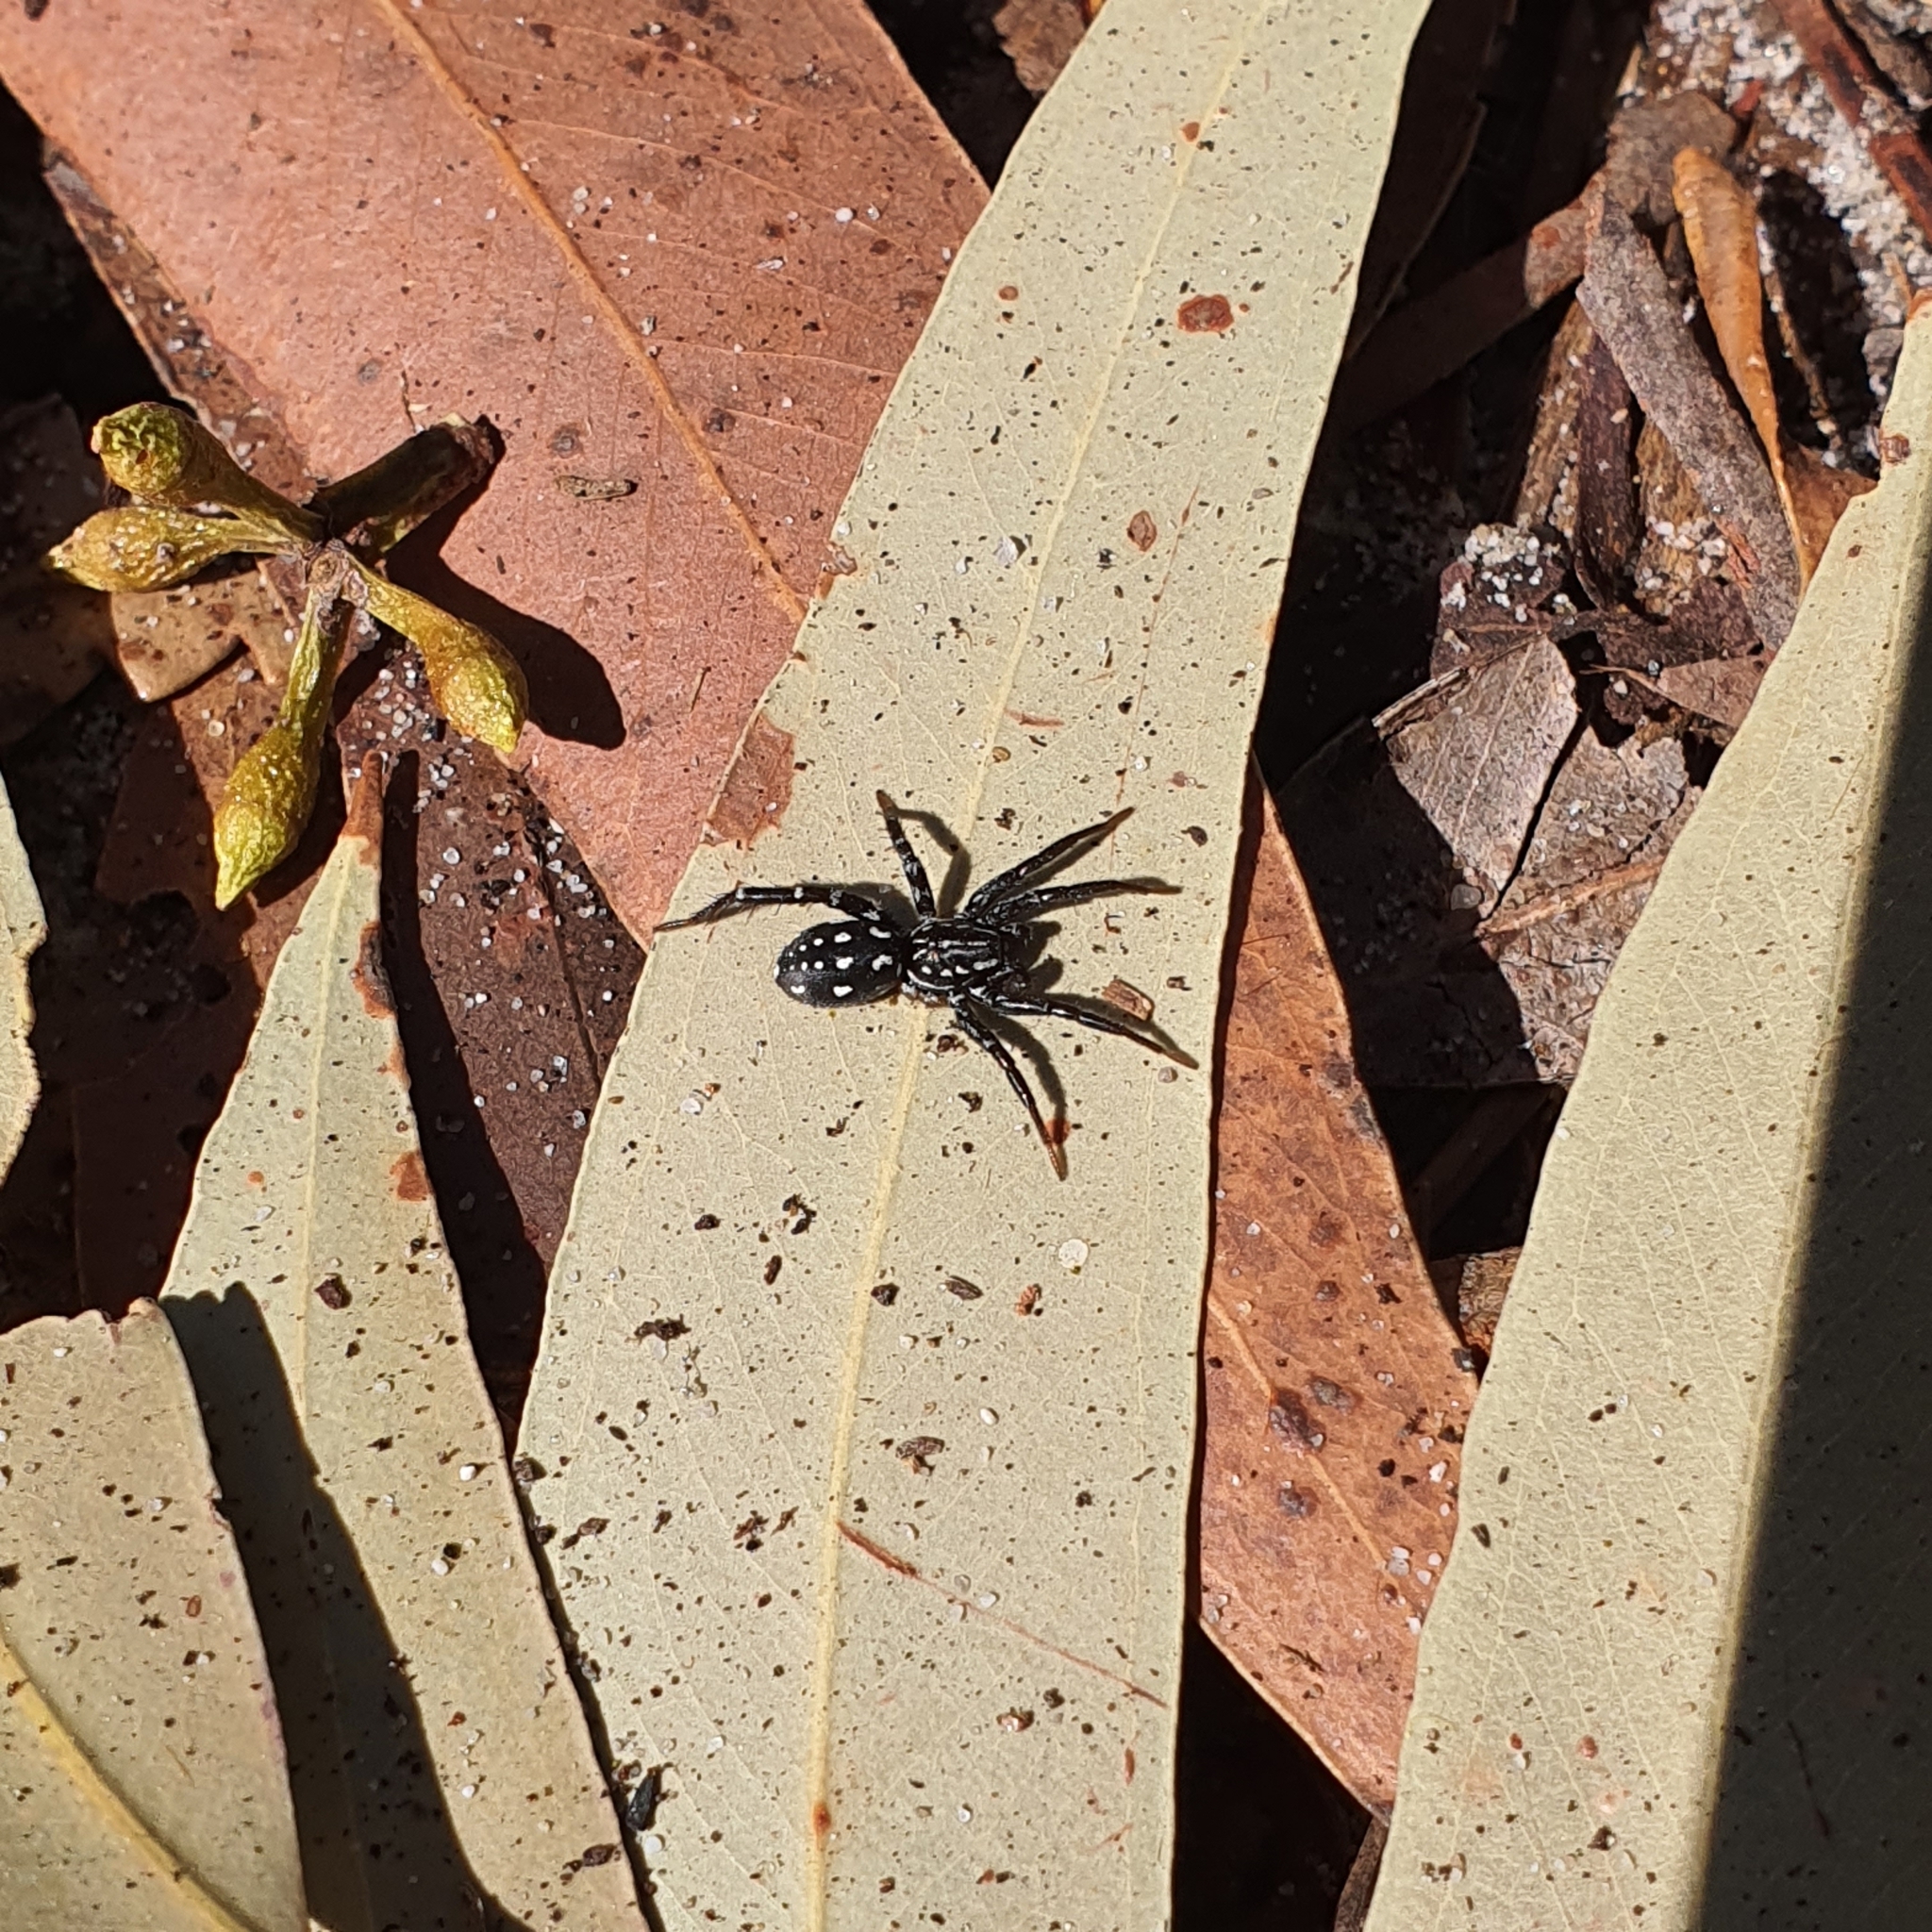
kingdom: Animalia
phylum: Arthropoda
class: Arachnida
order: Araneae
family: Corinnidae
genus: Nyssus
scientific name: Nyssus albopunctatus
